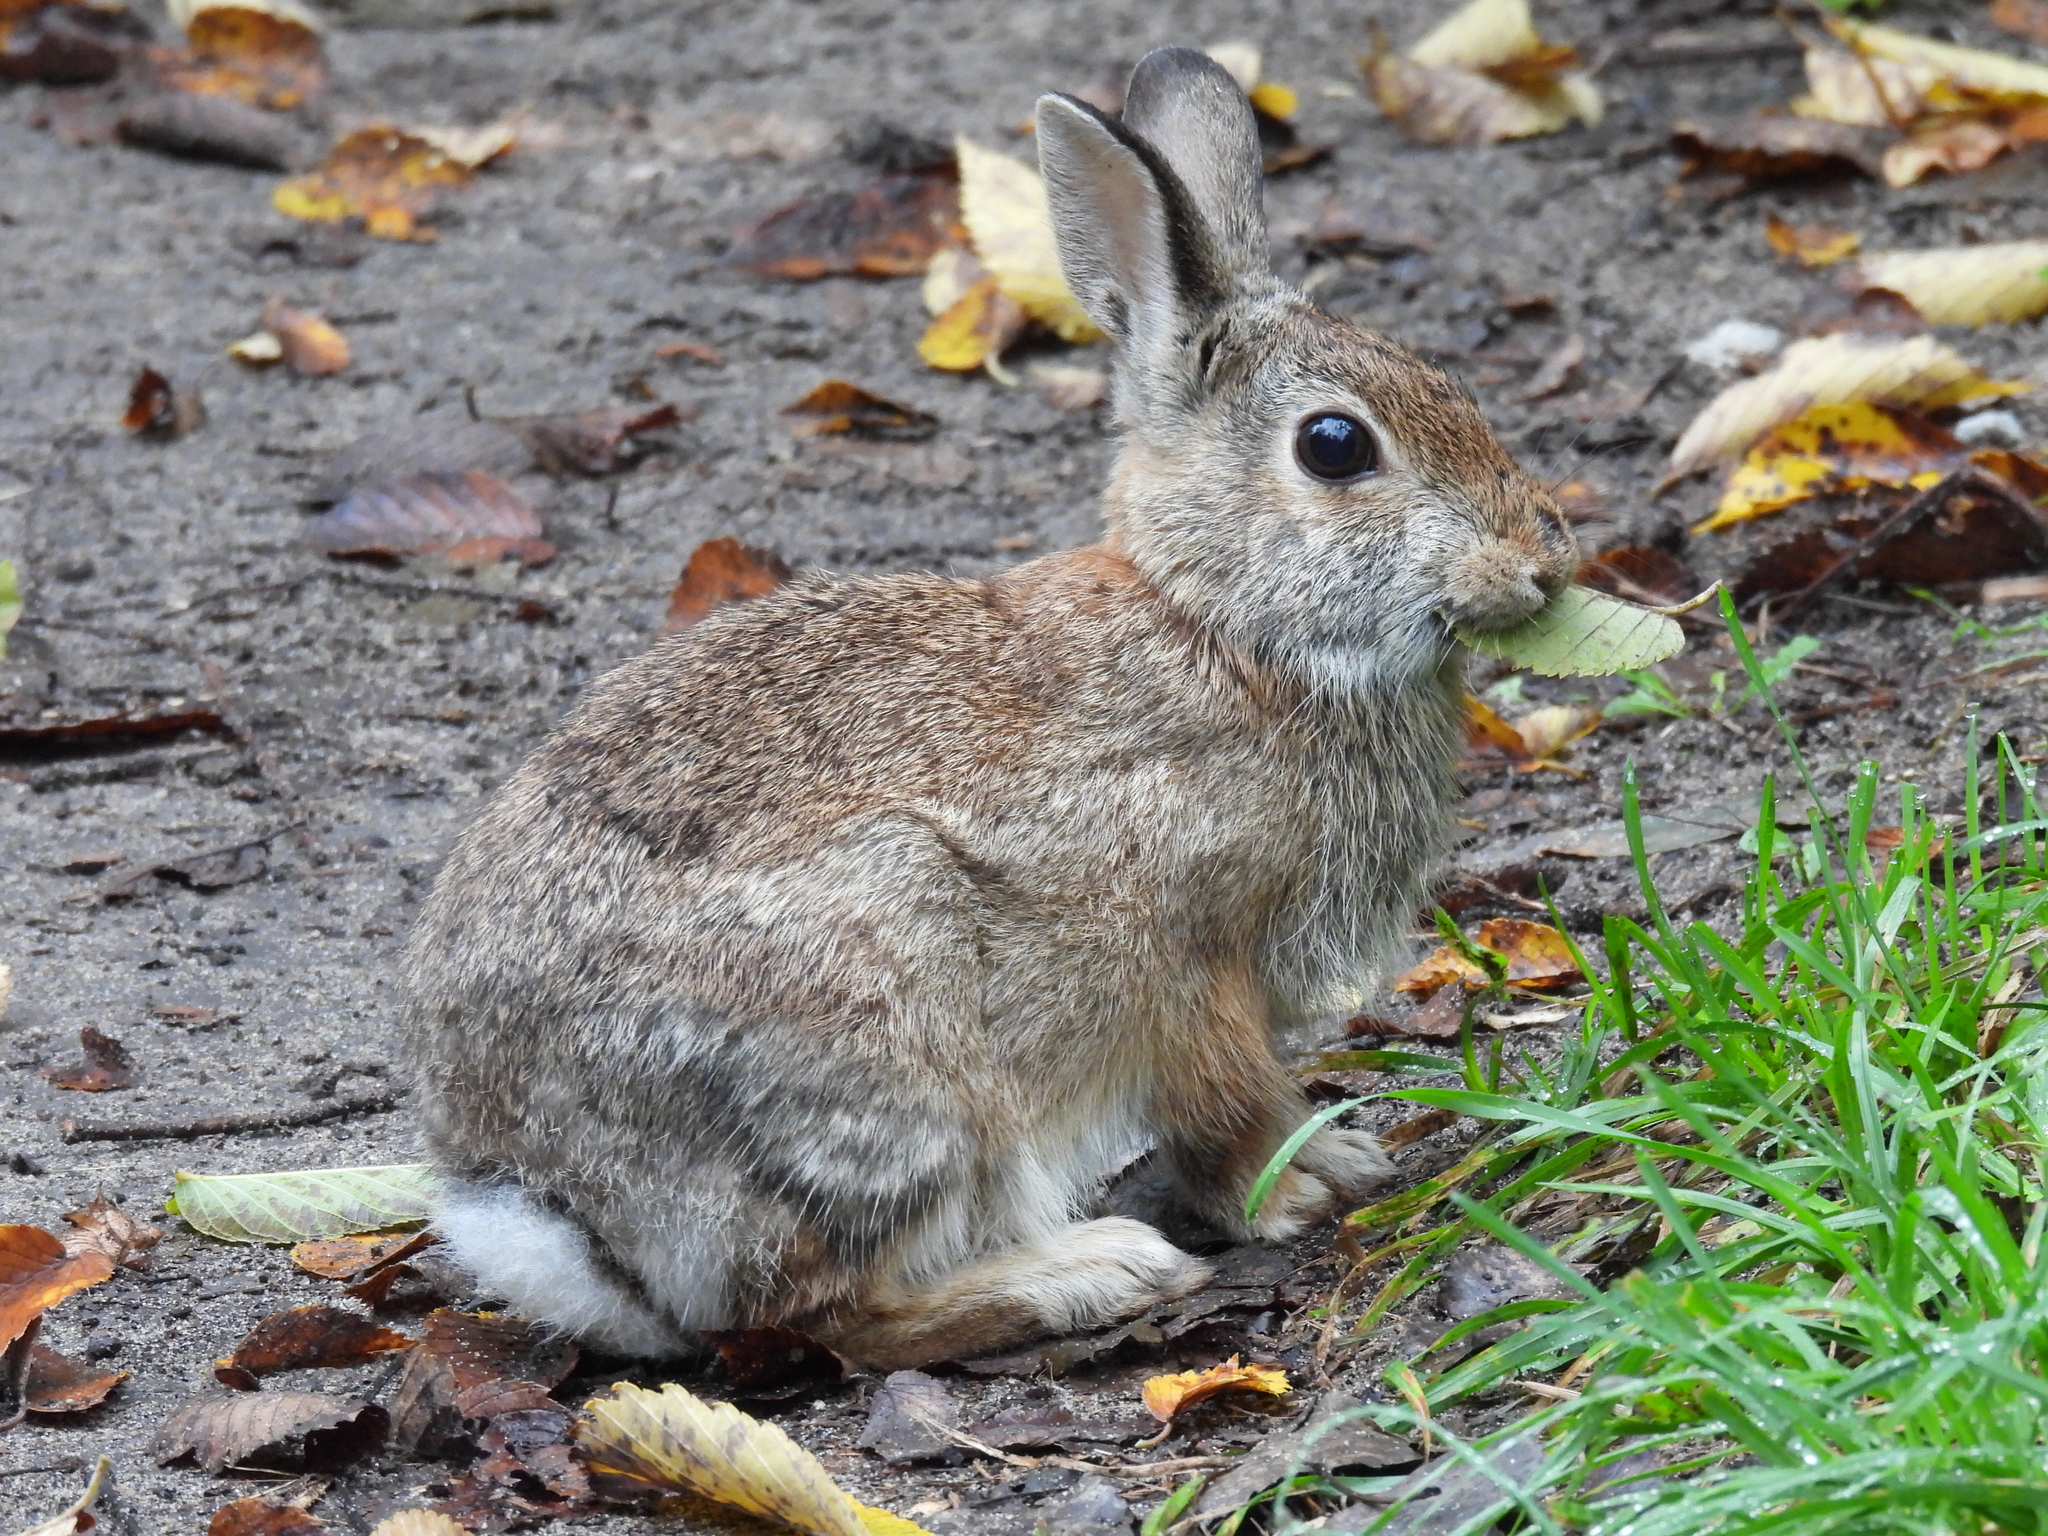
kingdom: Animalia
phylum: Chordata
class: Mammalia
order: Lagomorpha
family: Leporidae
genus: Sylvilagus
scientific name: Sylvilagus floridanus
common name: Eastern cottontail
